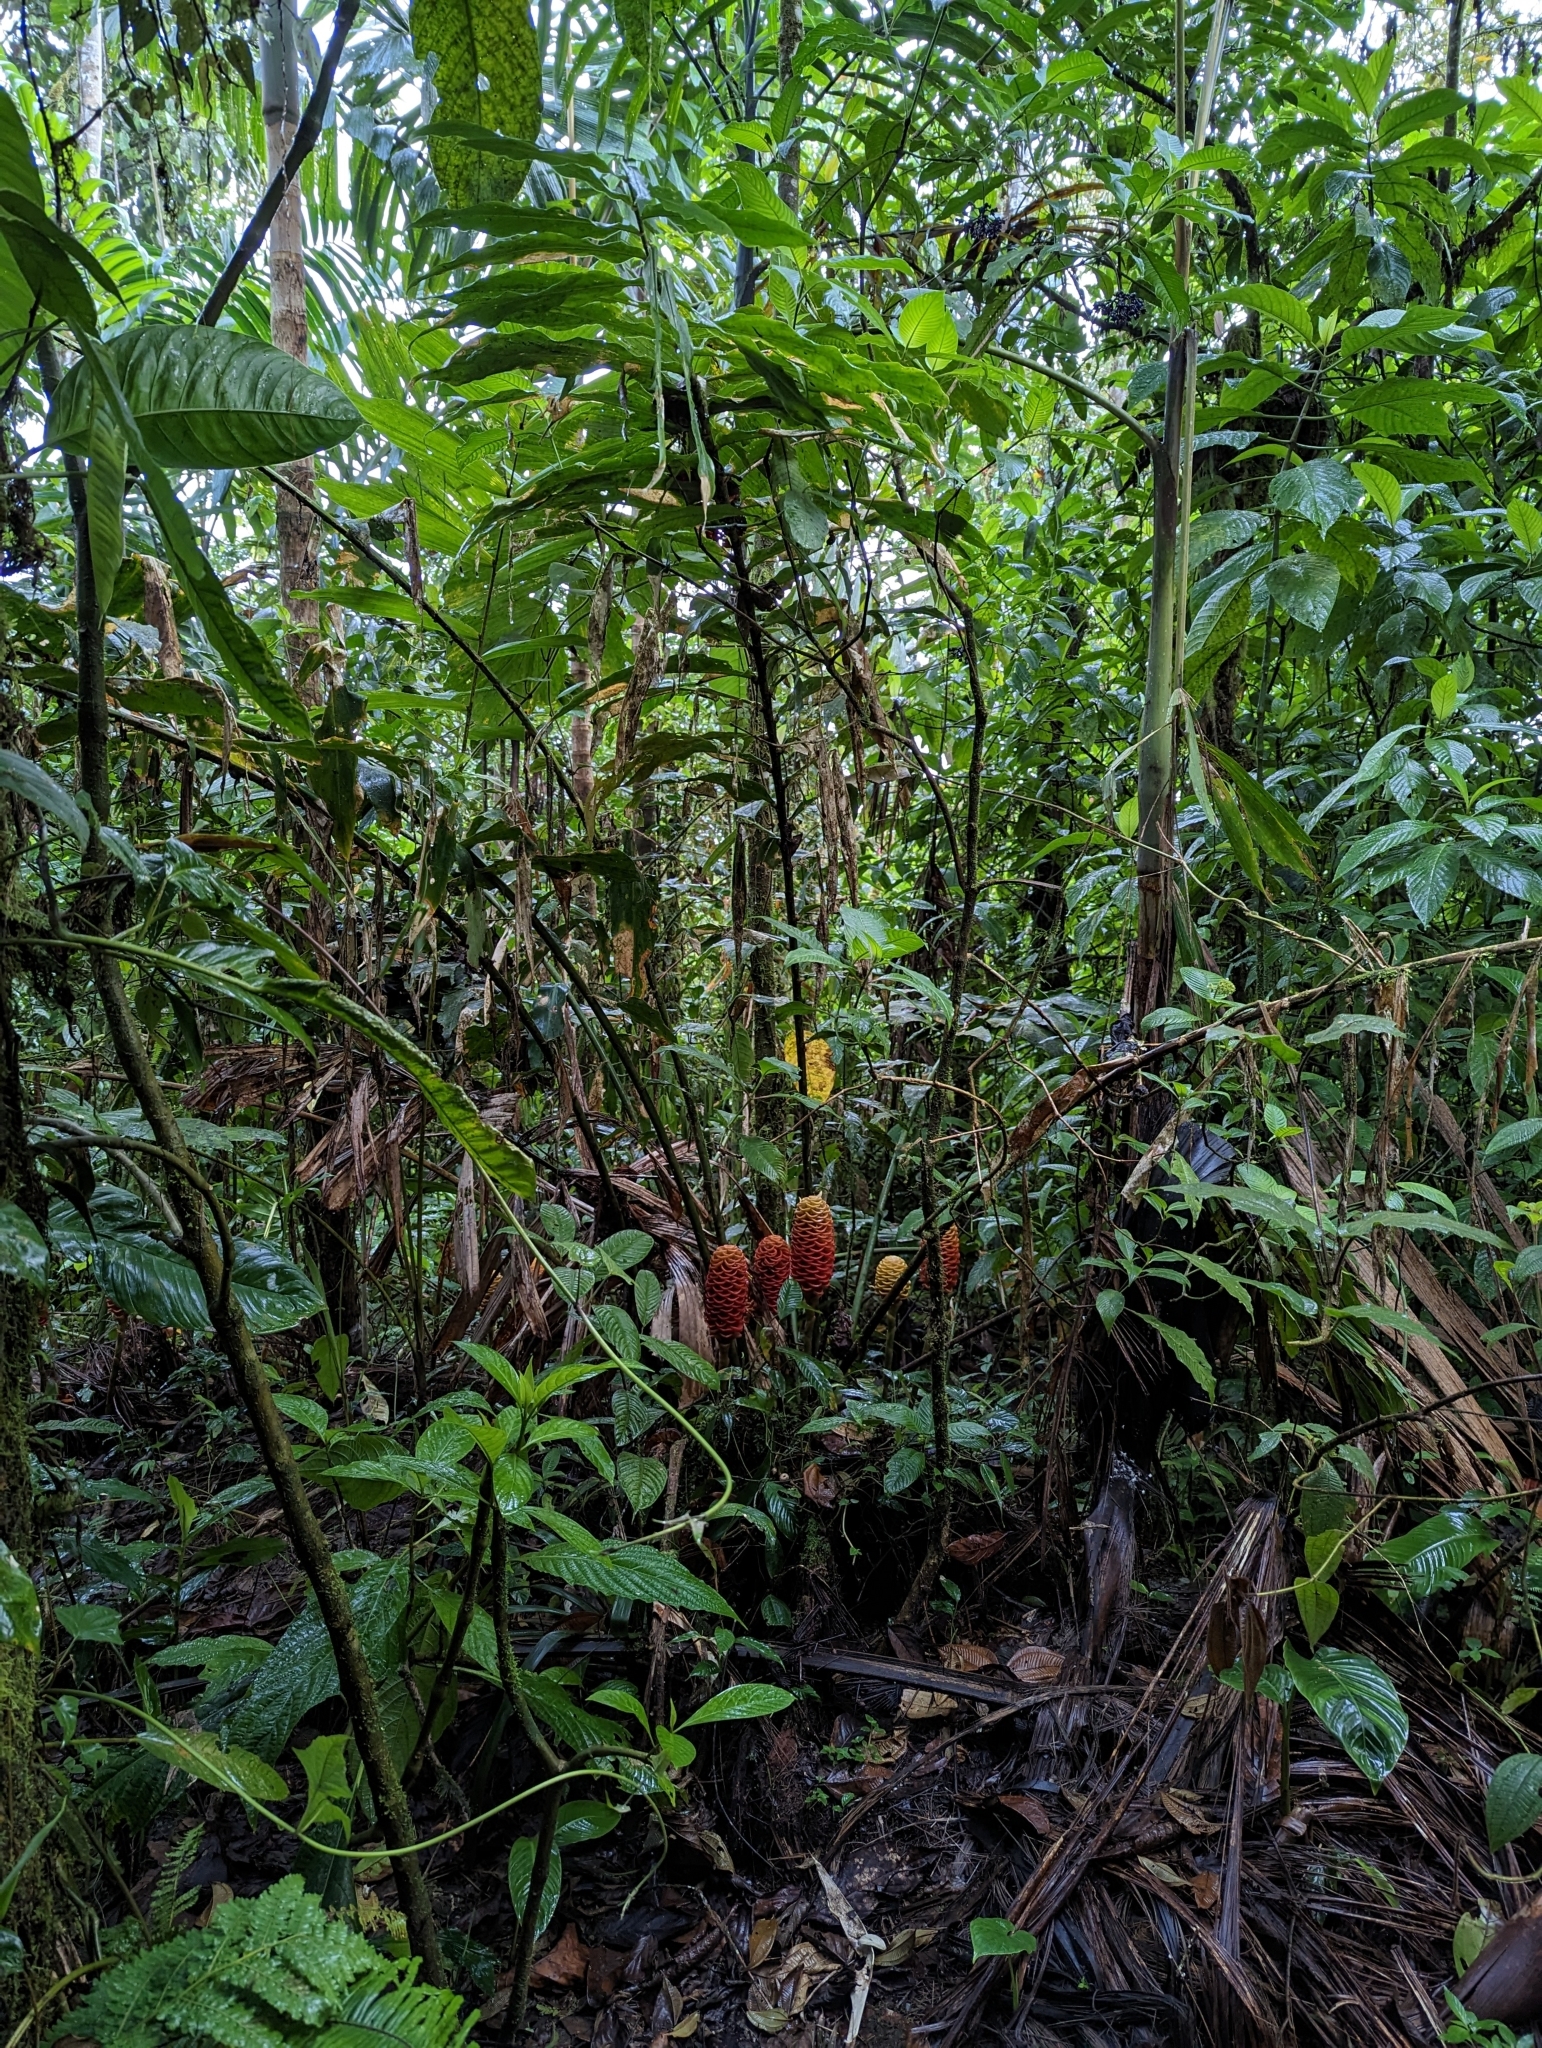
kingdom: Plantae
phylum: Tracheophyta
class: Liliopsida
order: Zingiberales
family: Zingiberaceae
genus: Zingiber
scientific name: Zingiber spectabile
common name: Beehive ginger
